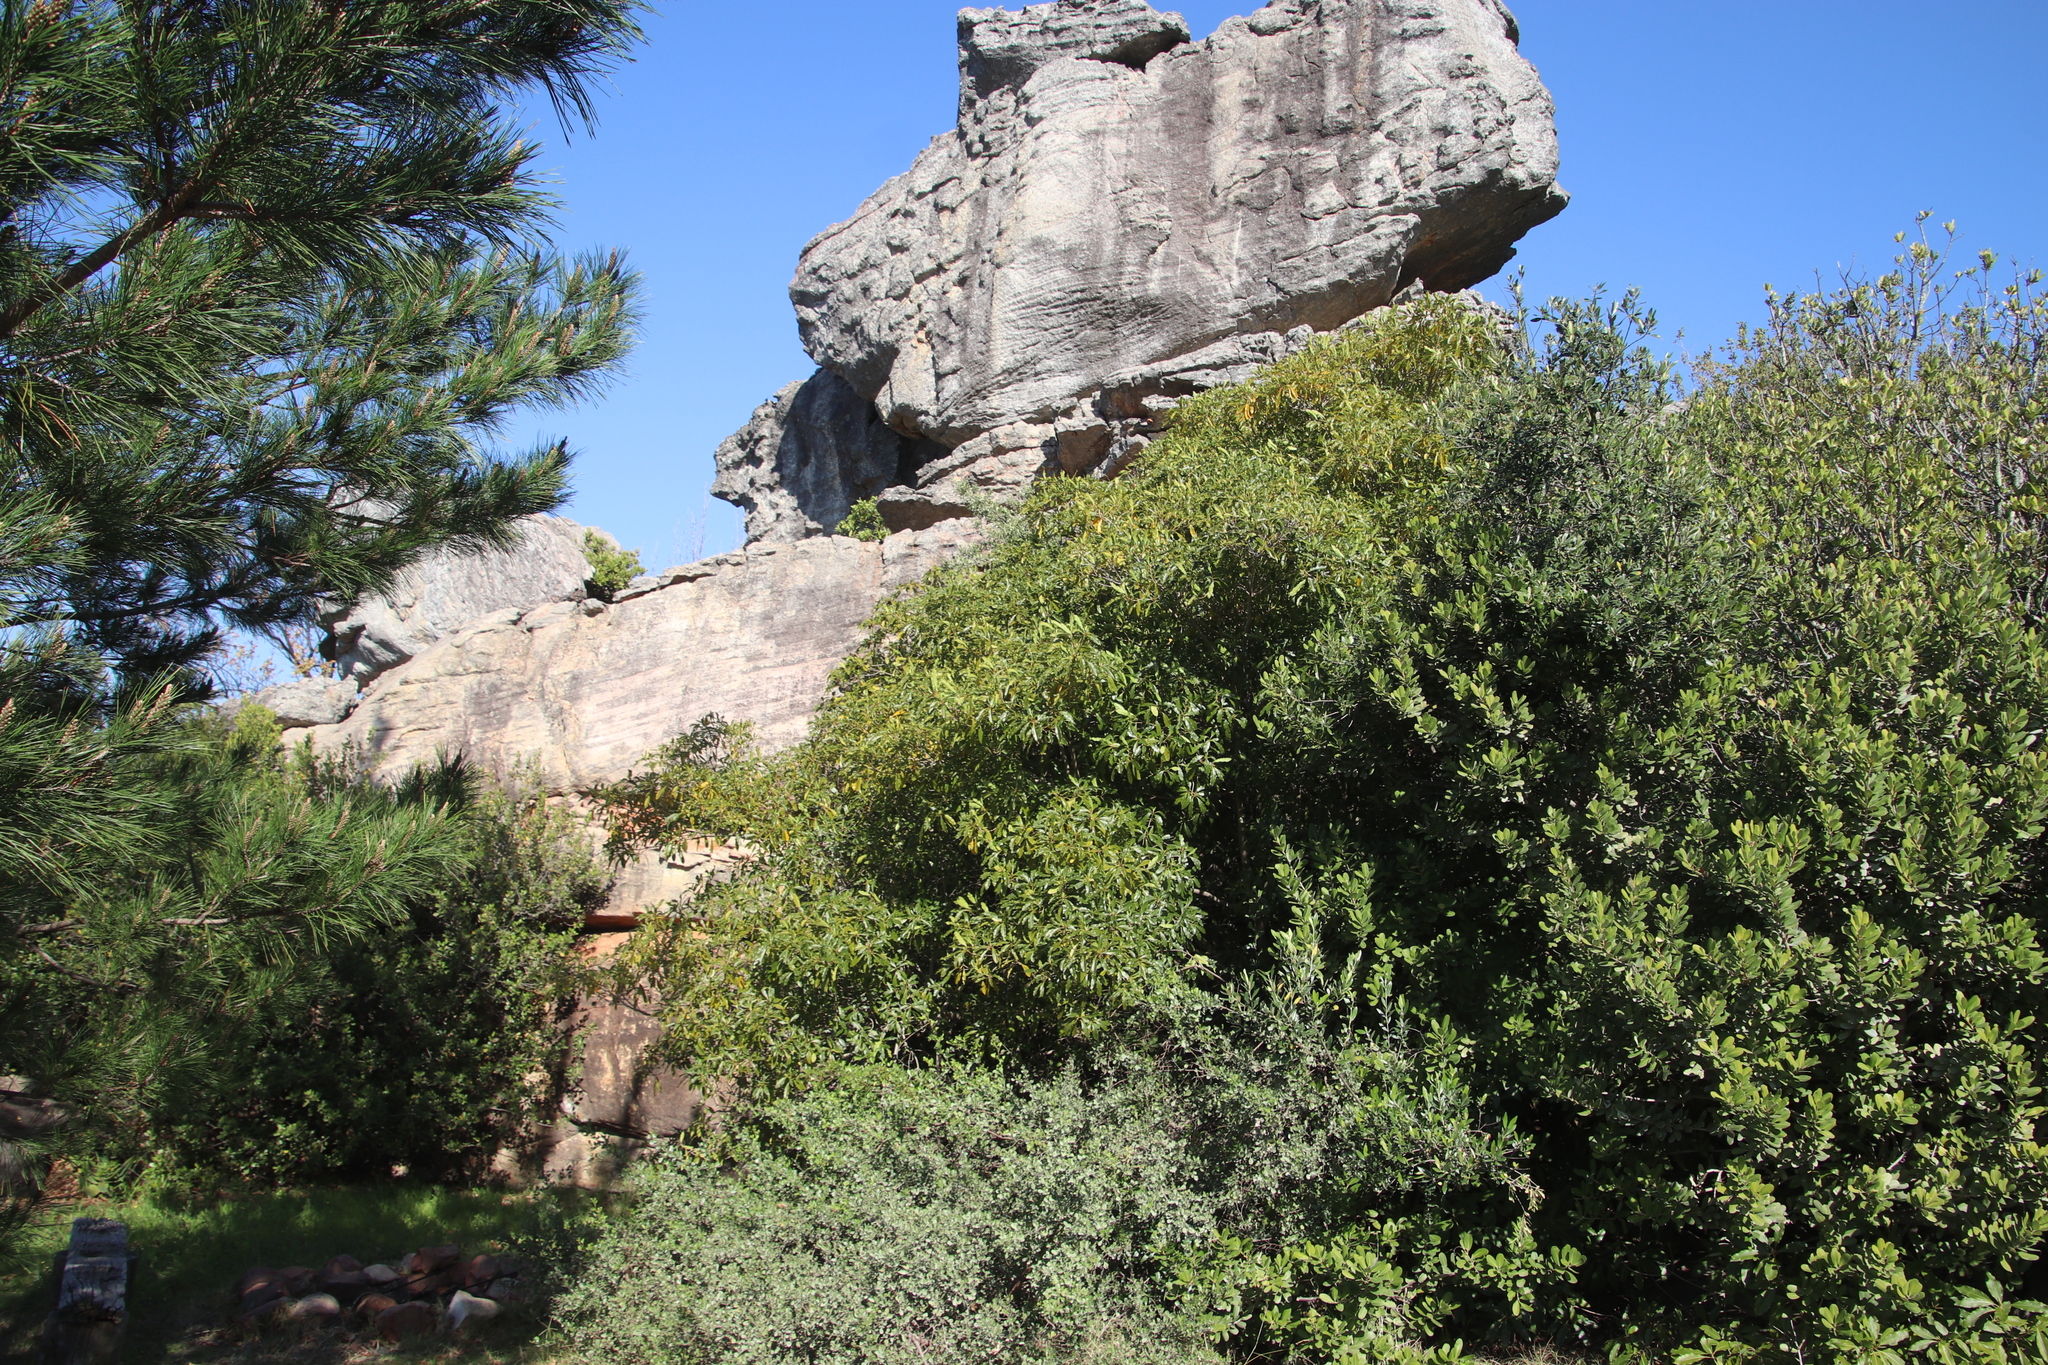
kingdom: Plantae
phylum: Tracheophyta
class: Magnoliopsida
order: Apiales
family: Pittosporaceae
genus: Pittosporum
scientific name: Pittosporum undulatum
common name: Australian cheesewood
